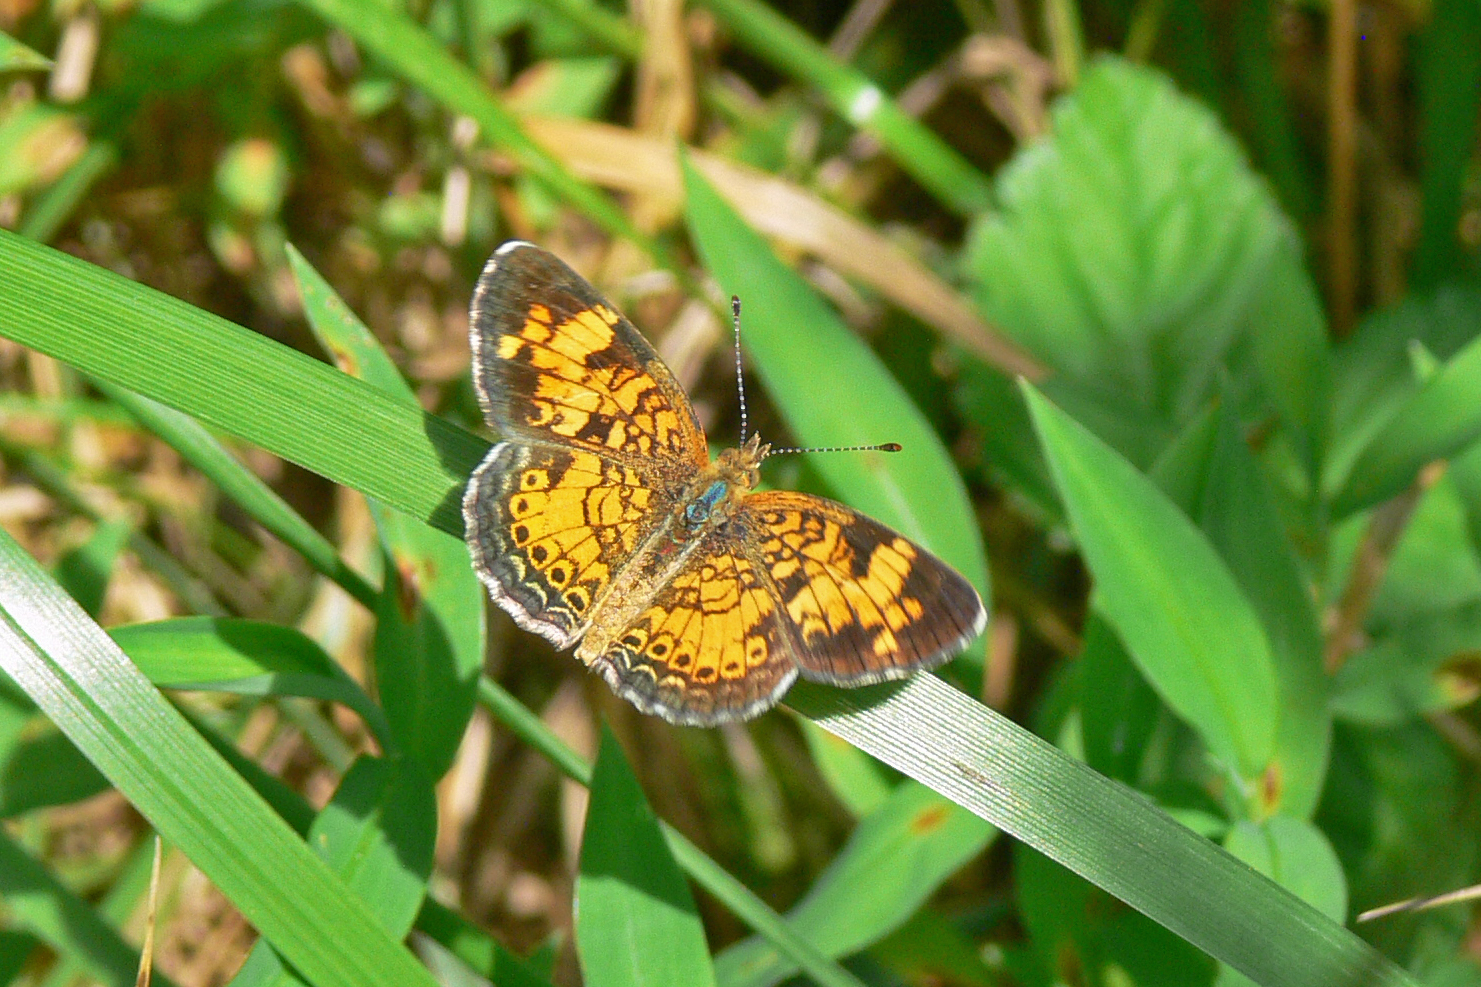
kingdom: Animalia
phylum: Arthropoda
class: Insecta
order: Lepidoptera
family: Nymphalidae
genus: Phyciodes
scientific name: Phyciodes tharos
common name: Pearl crescent
